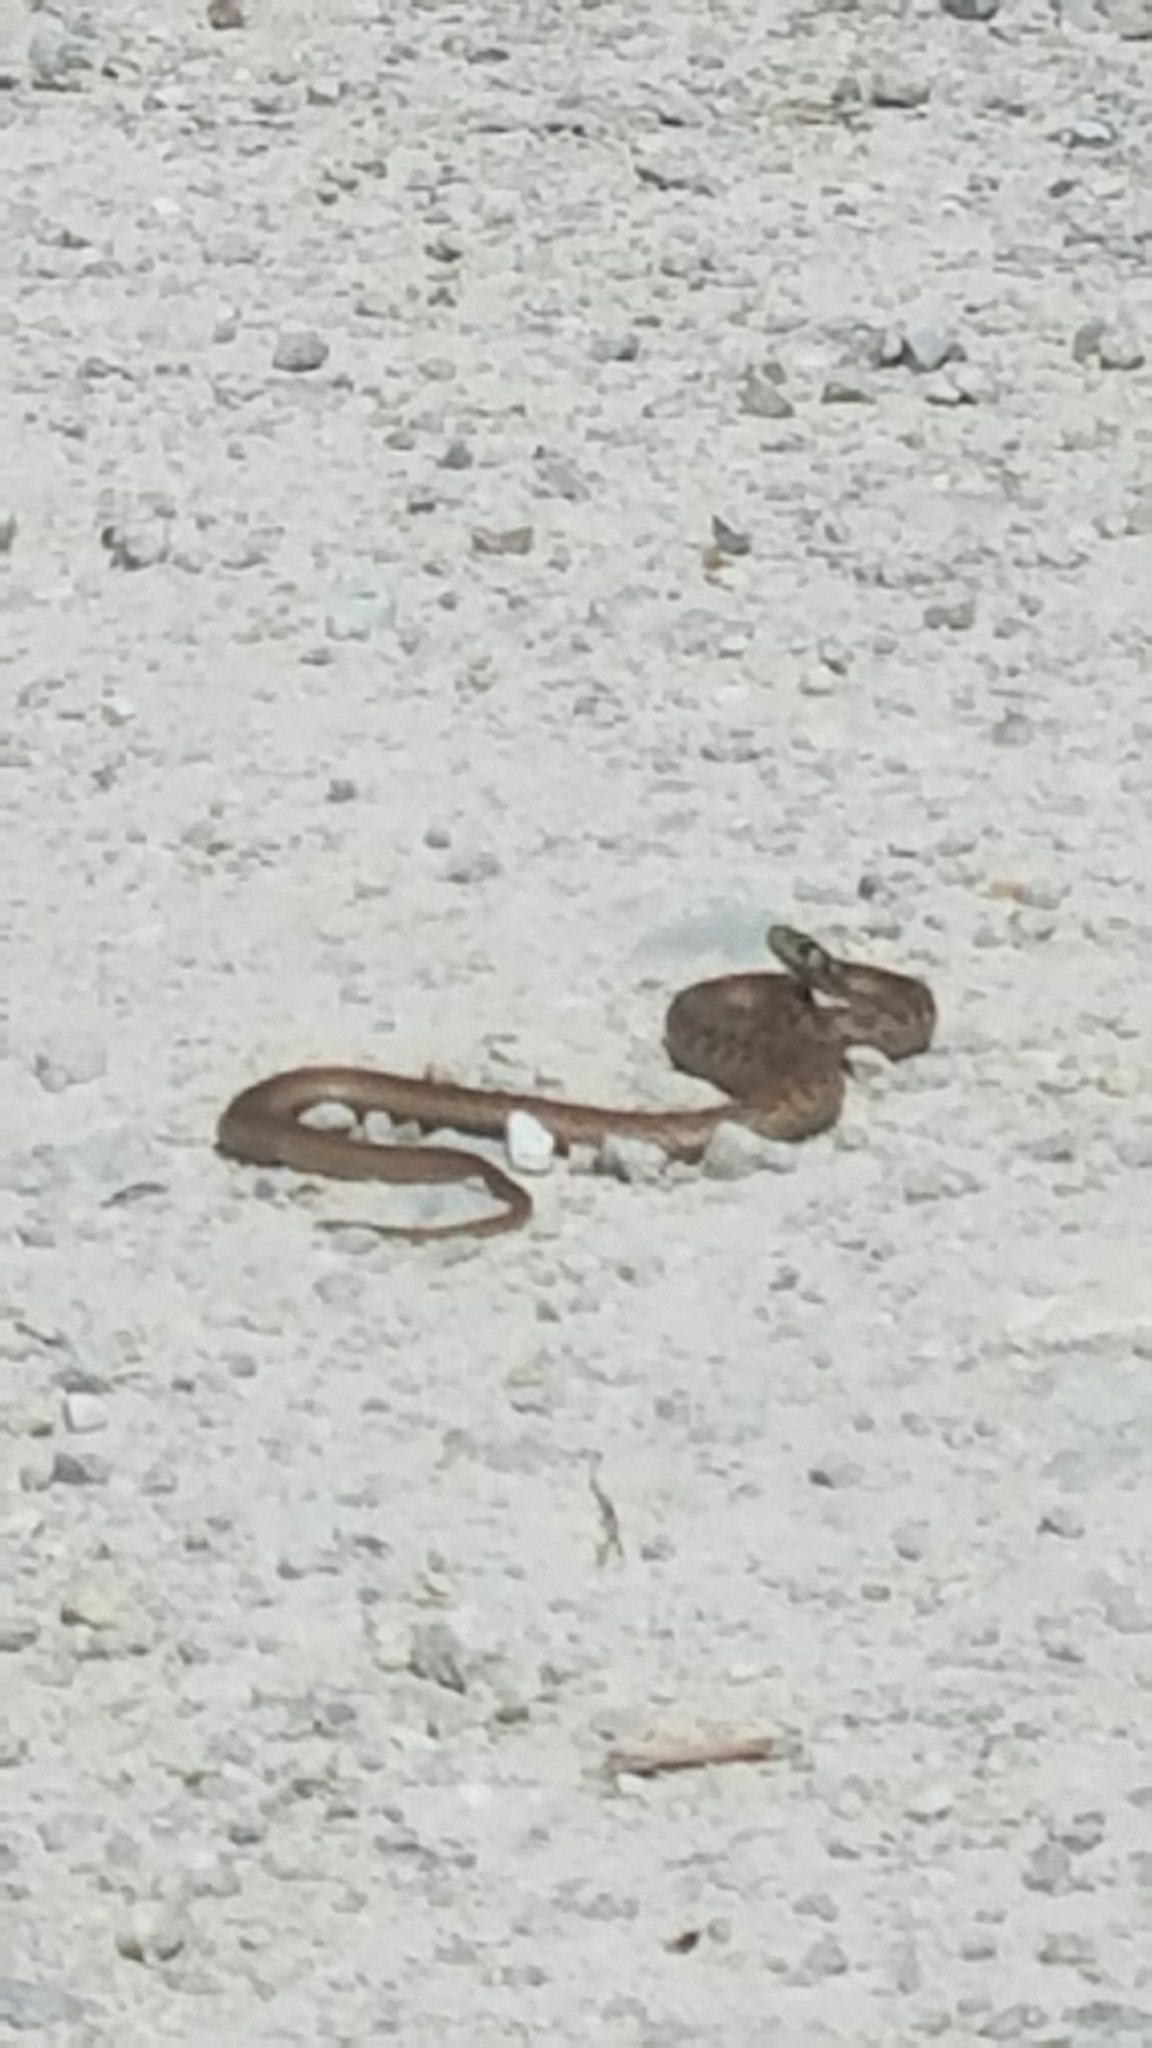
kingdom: Animalia
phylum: Chordata
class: Squamata
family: Colubridae
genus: Storeria
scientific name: Storeria dekayi
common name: (dekay’s) brown snake
